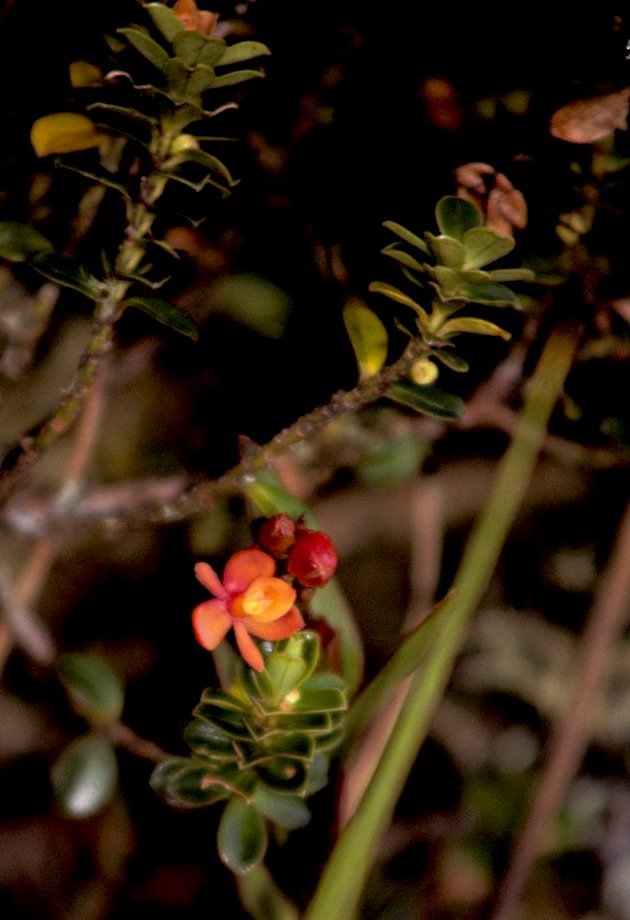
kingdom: Plantae
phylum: Tracheophyta
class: Liliopsida
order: Asparagales
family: Orchidaceae
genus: Epidendrum
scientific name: Epidendrum incapachychilum
